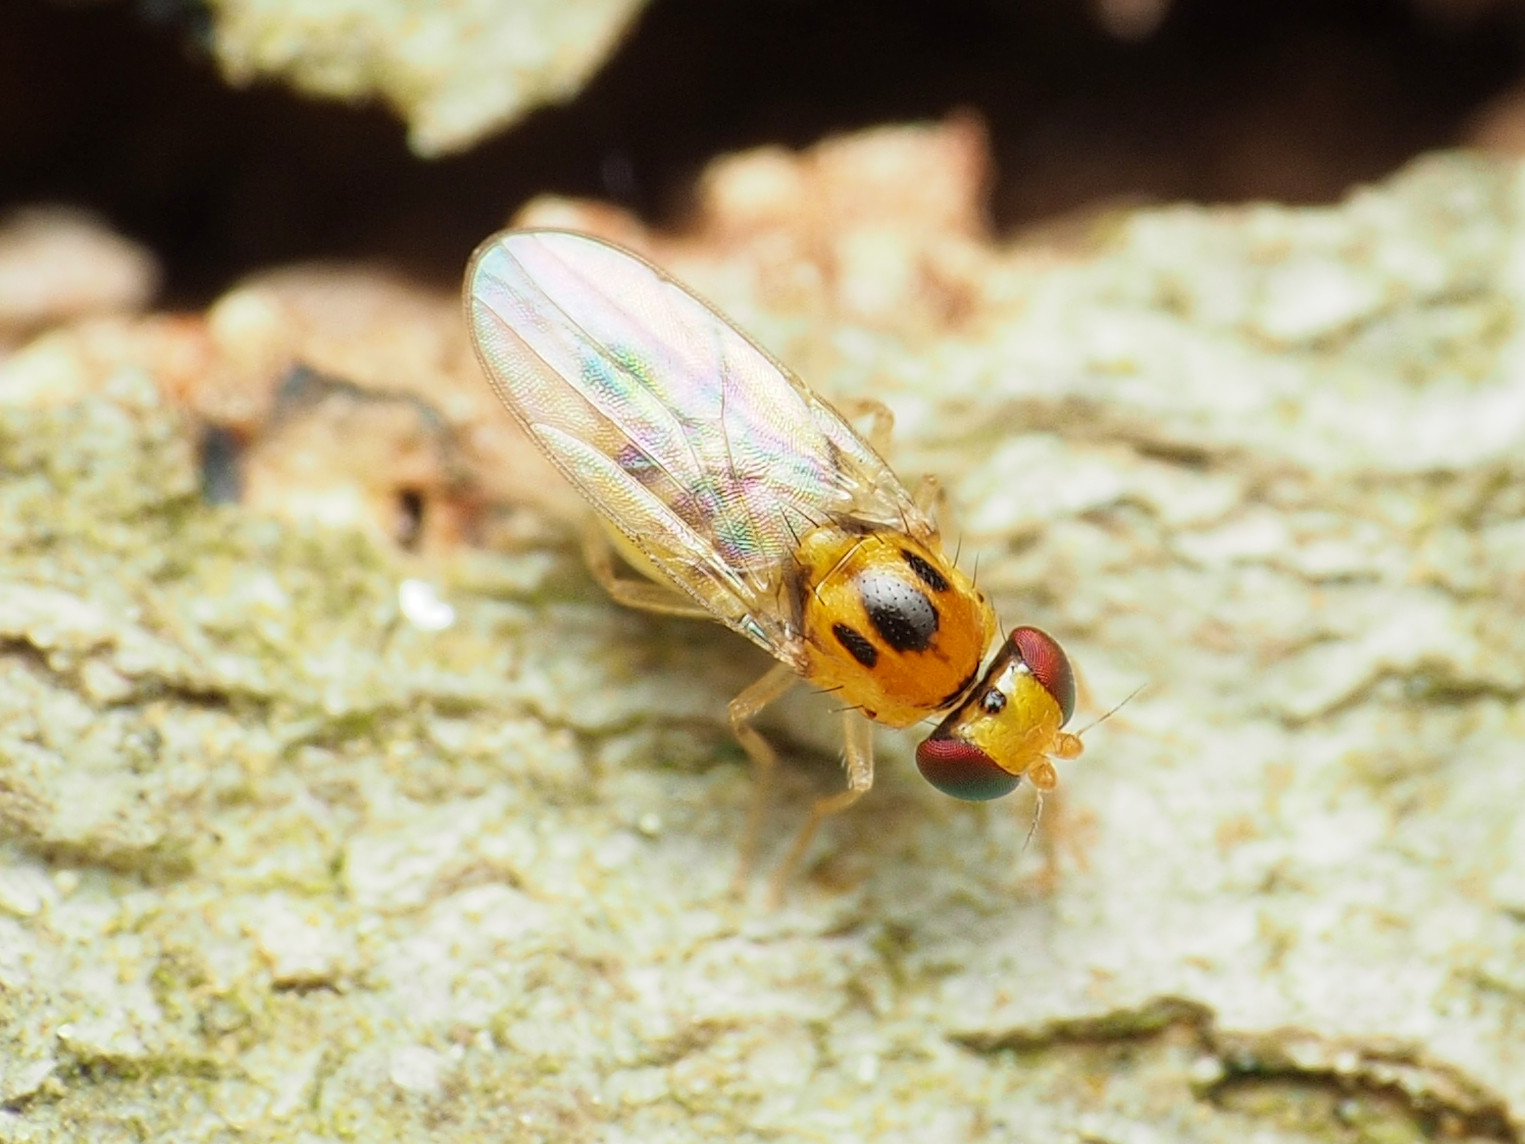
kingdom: Animalia
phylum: Arthropoda
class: Insecta
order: Diptera
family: Chloropidae
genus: Gaurax
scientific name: Gaurax pseudostigma
